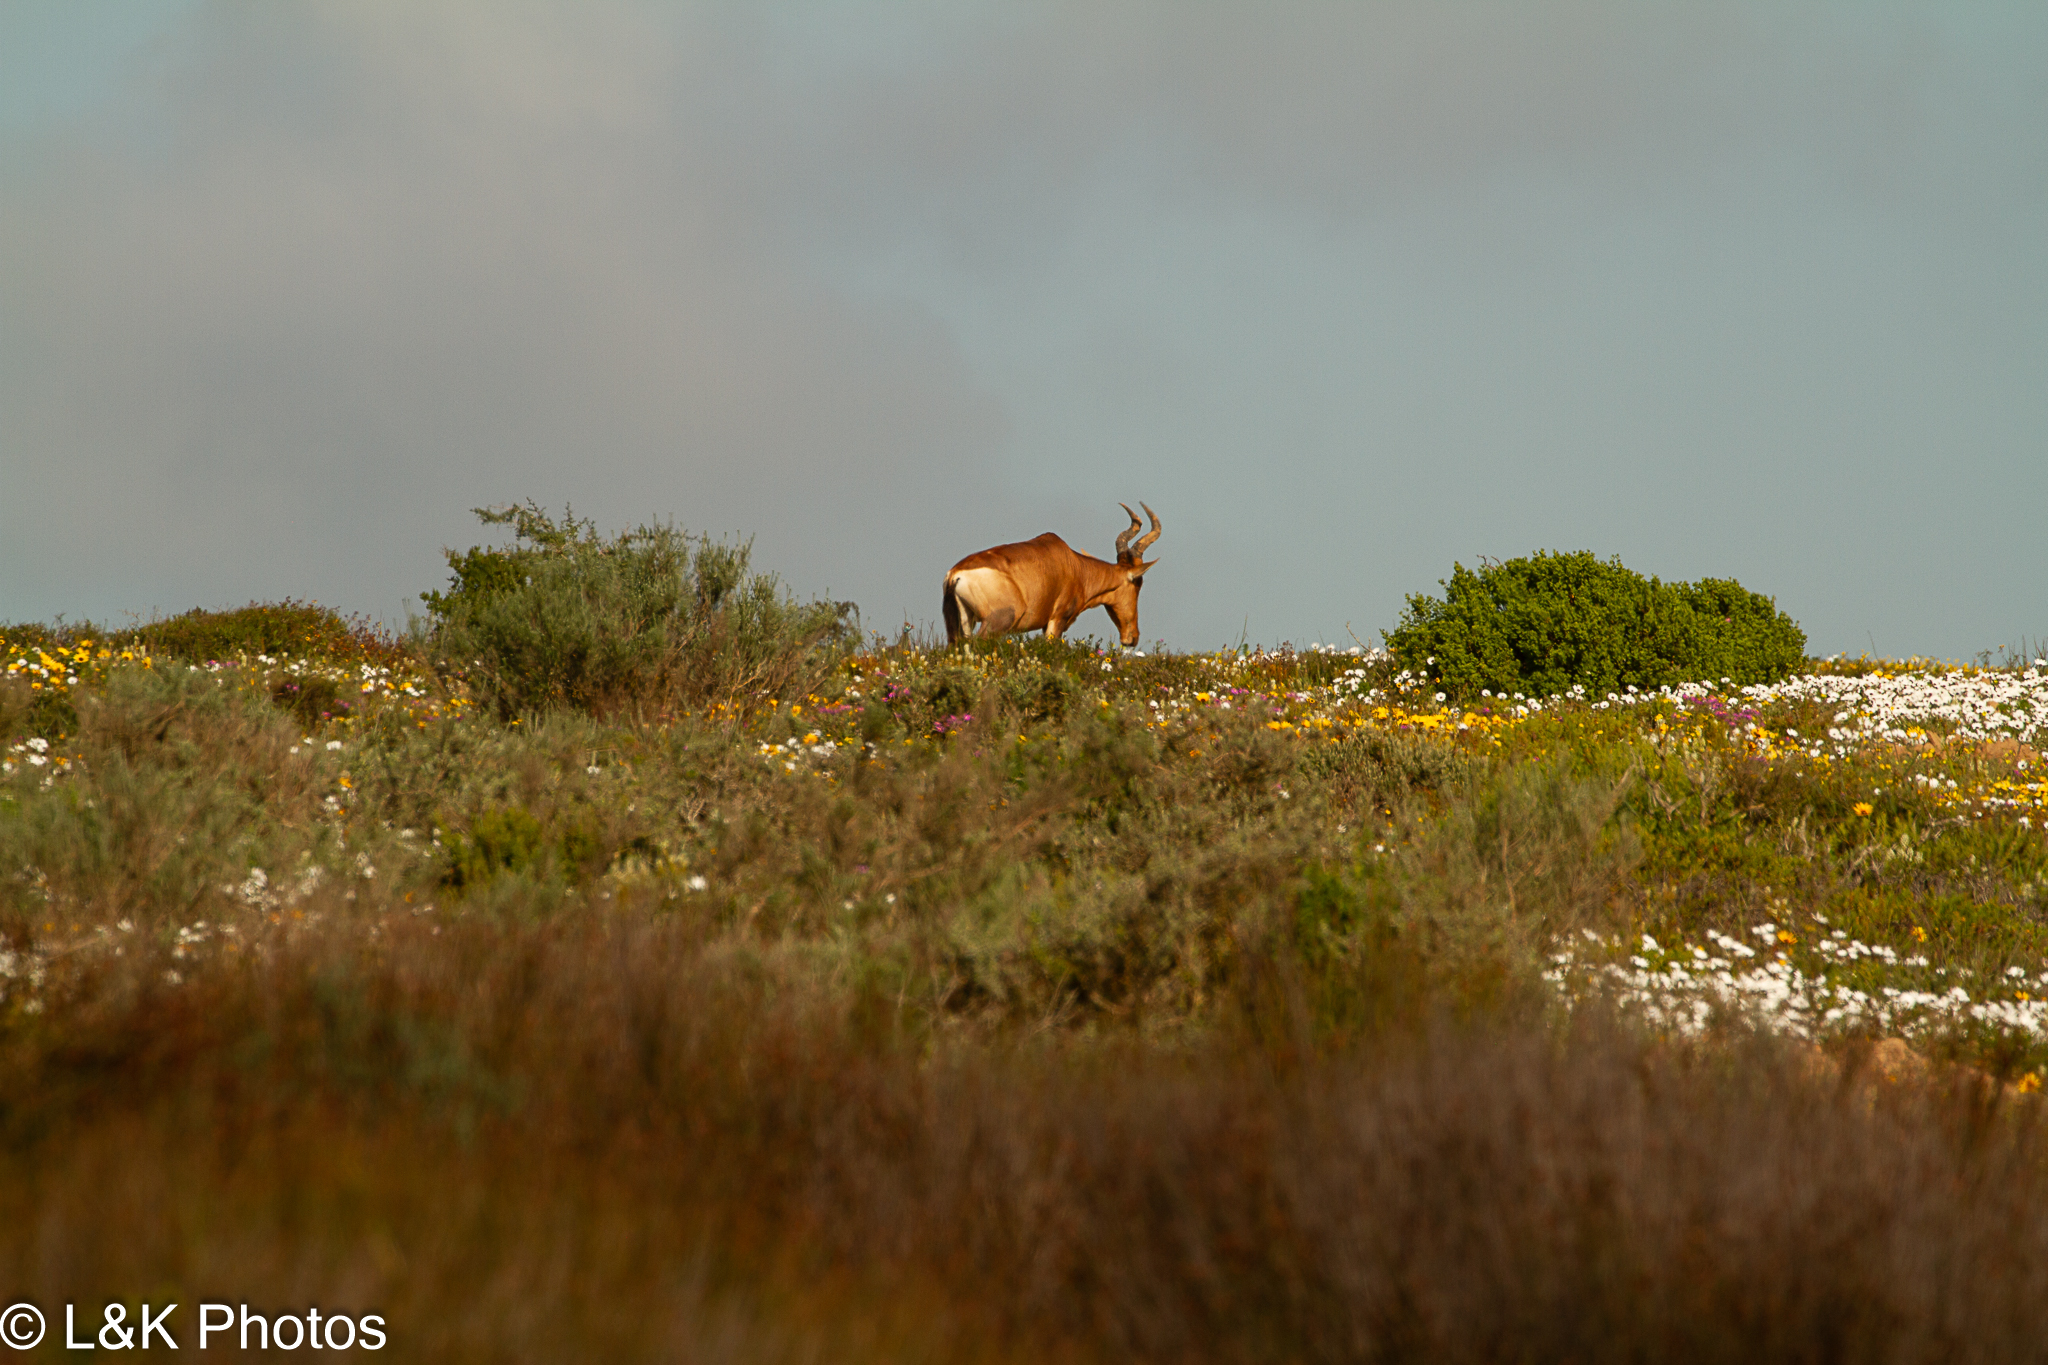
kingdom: Animalia
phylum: Chordata
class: Mammalia
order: Artiodactyla
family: Bovidae
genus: Alcelaphus
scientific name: Alcelaphus caama
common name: Red hartebeest
